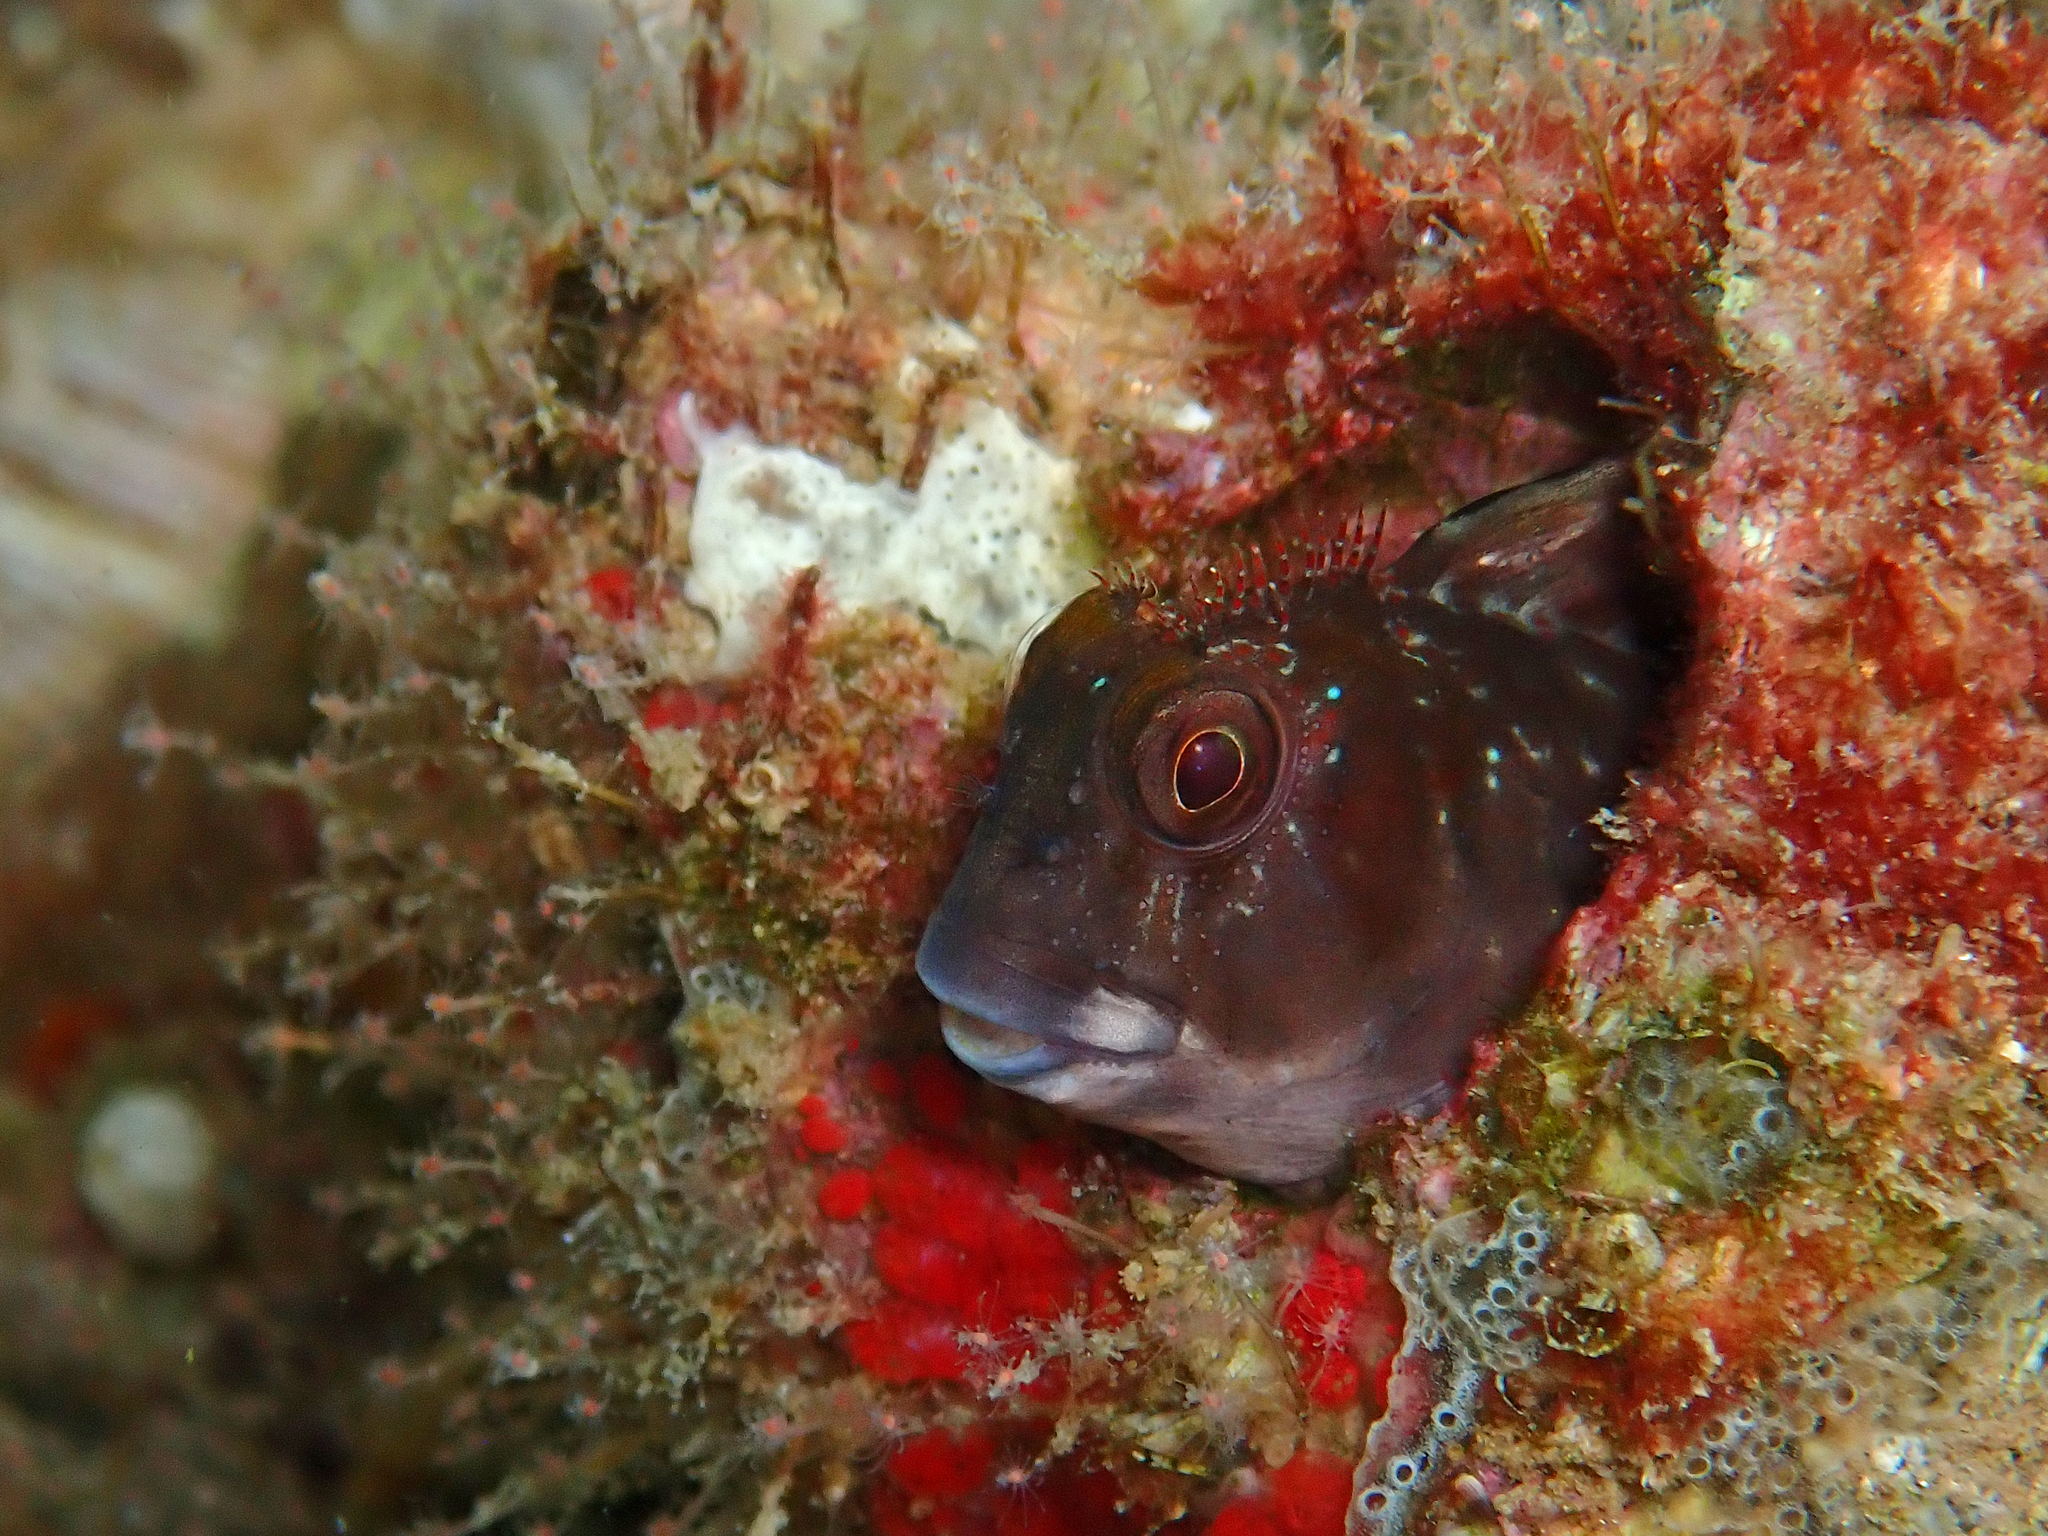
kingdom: Animalia
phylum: Chordata
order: Perciformes
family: Blenniidae
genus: Scartella
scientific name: Scartella cristata
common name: Molly miller
